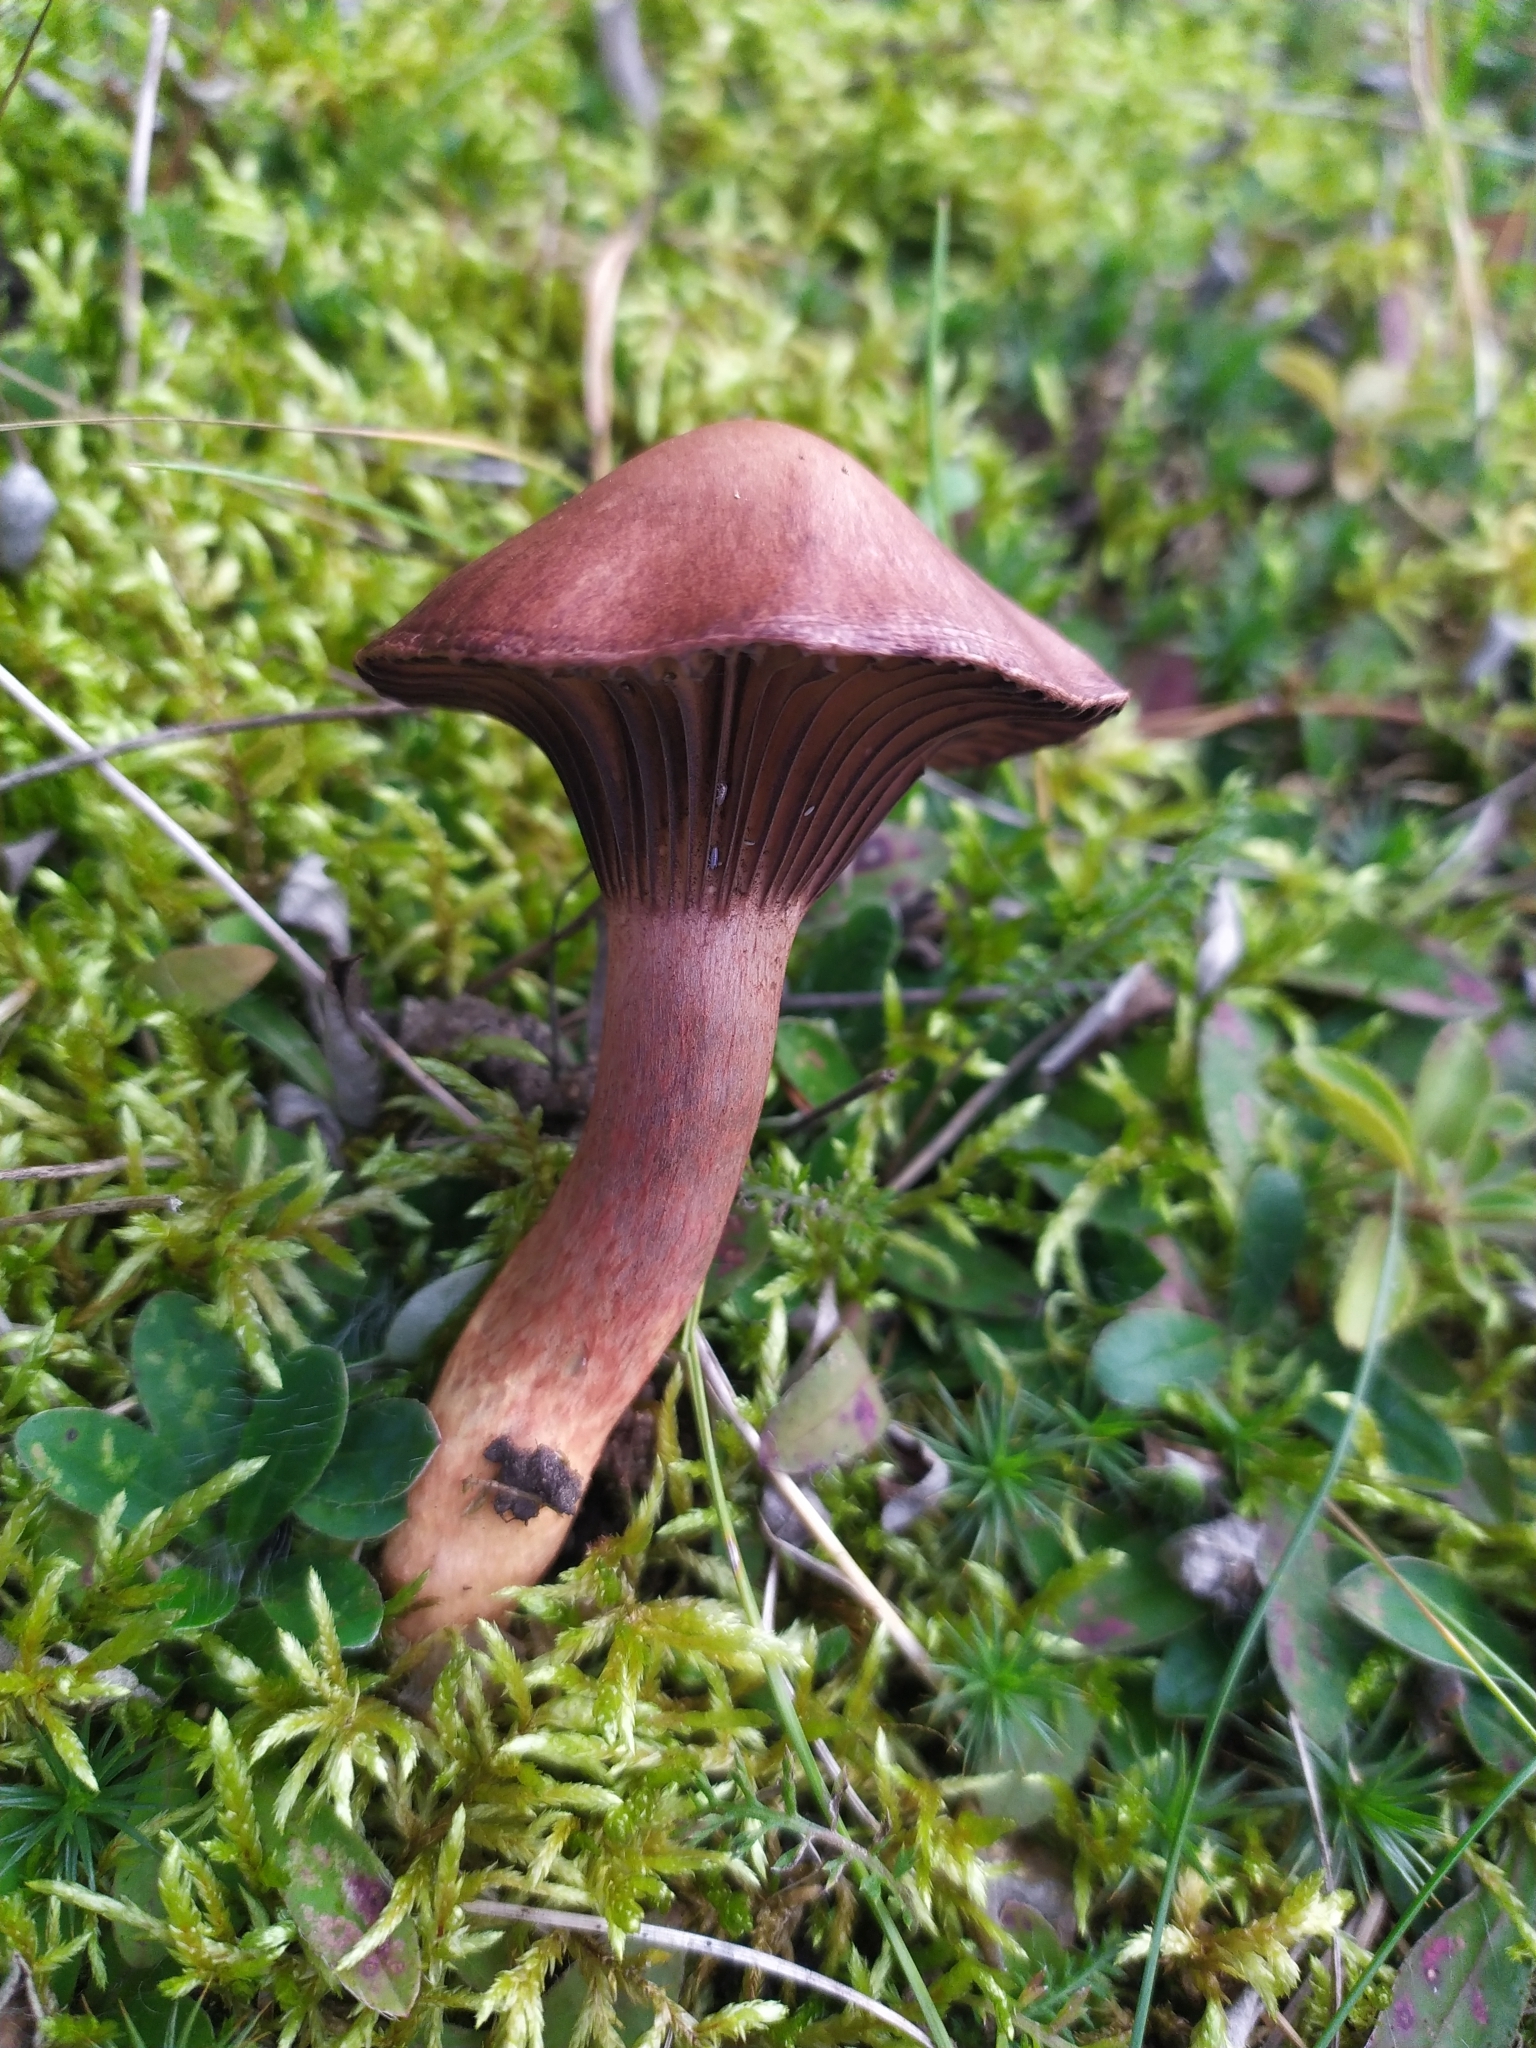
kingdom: Fungi
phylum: Basidiomycota
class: Agaricomycetes
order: Boletales
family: Gomphidiaceae
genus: Chroogomphus
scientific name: Chroogomphus rutilus
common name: Copper spike
